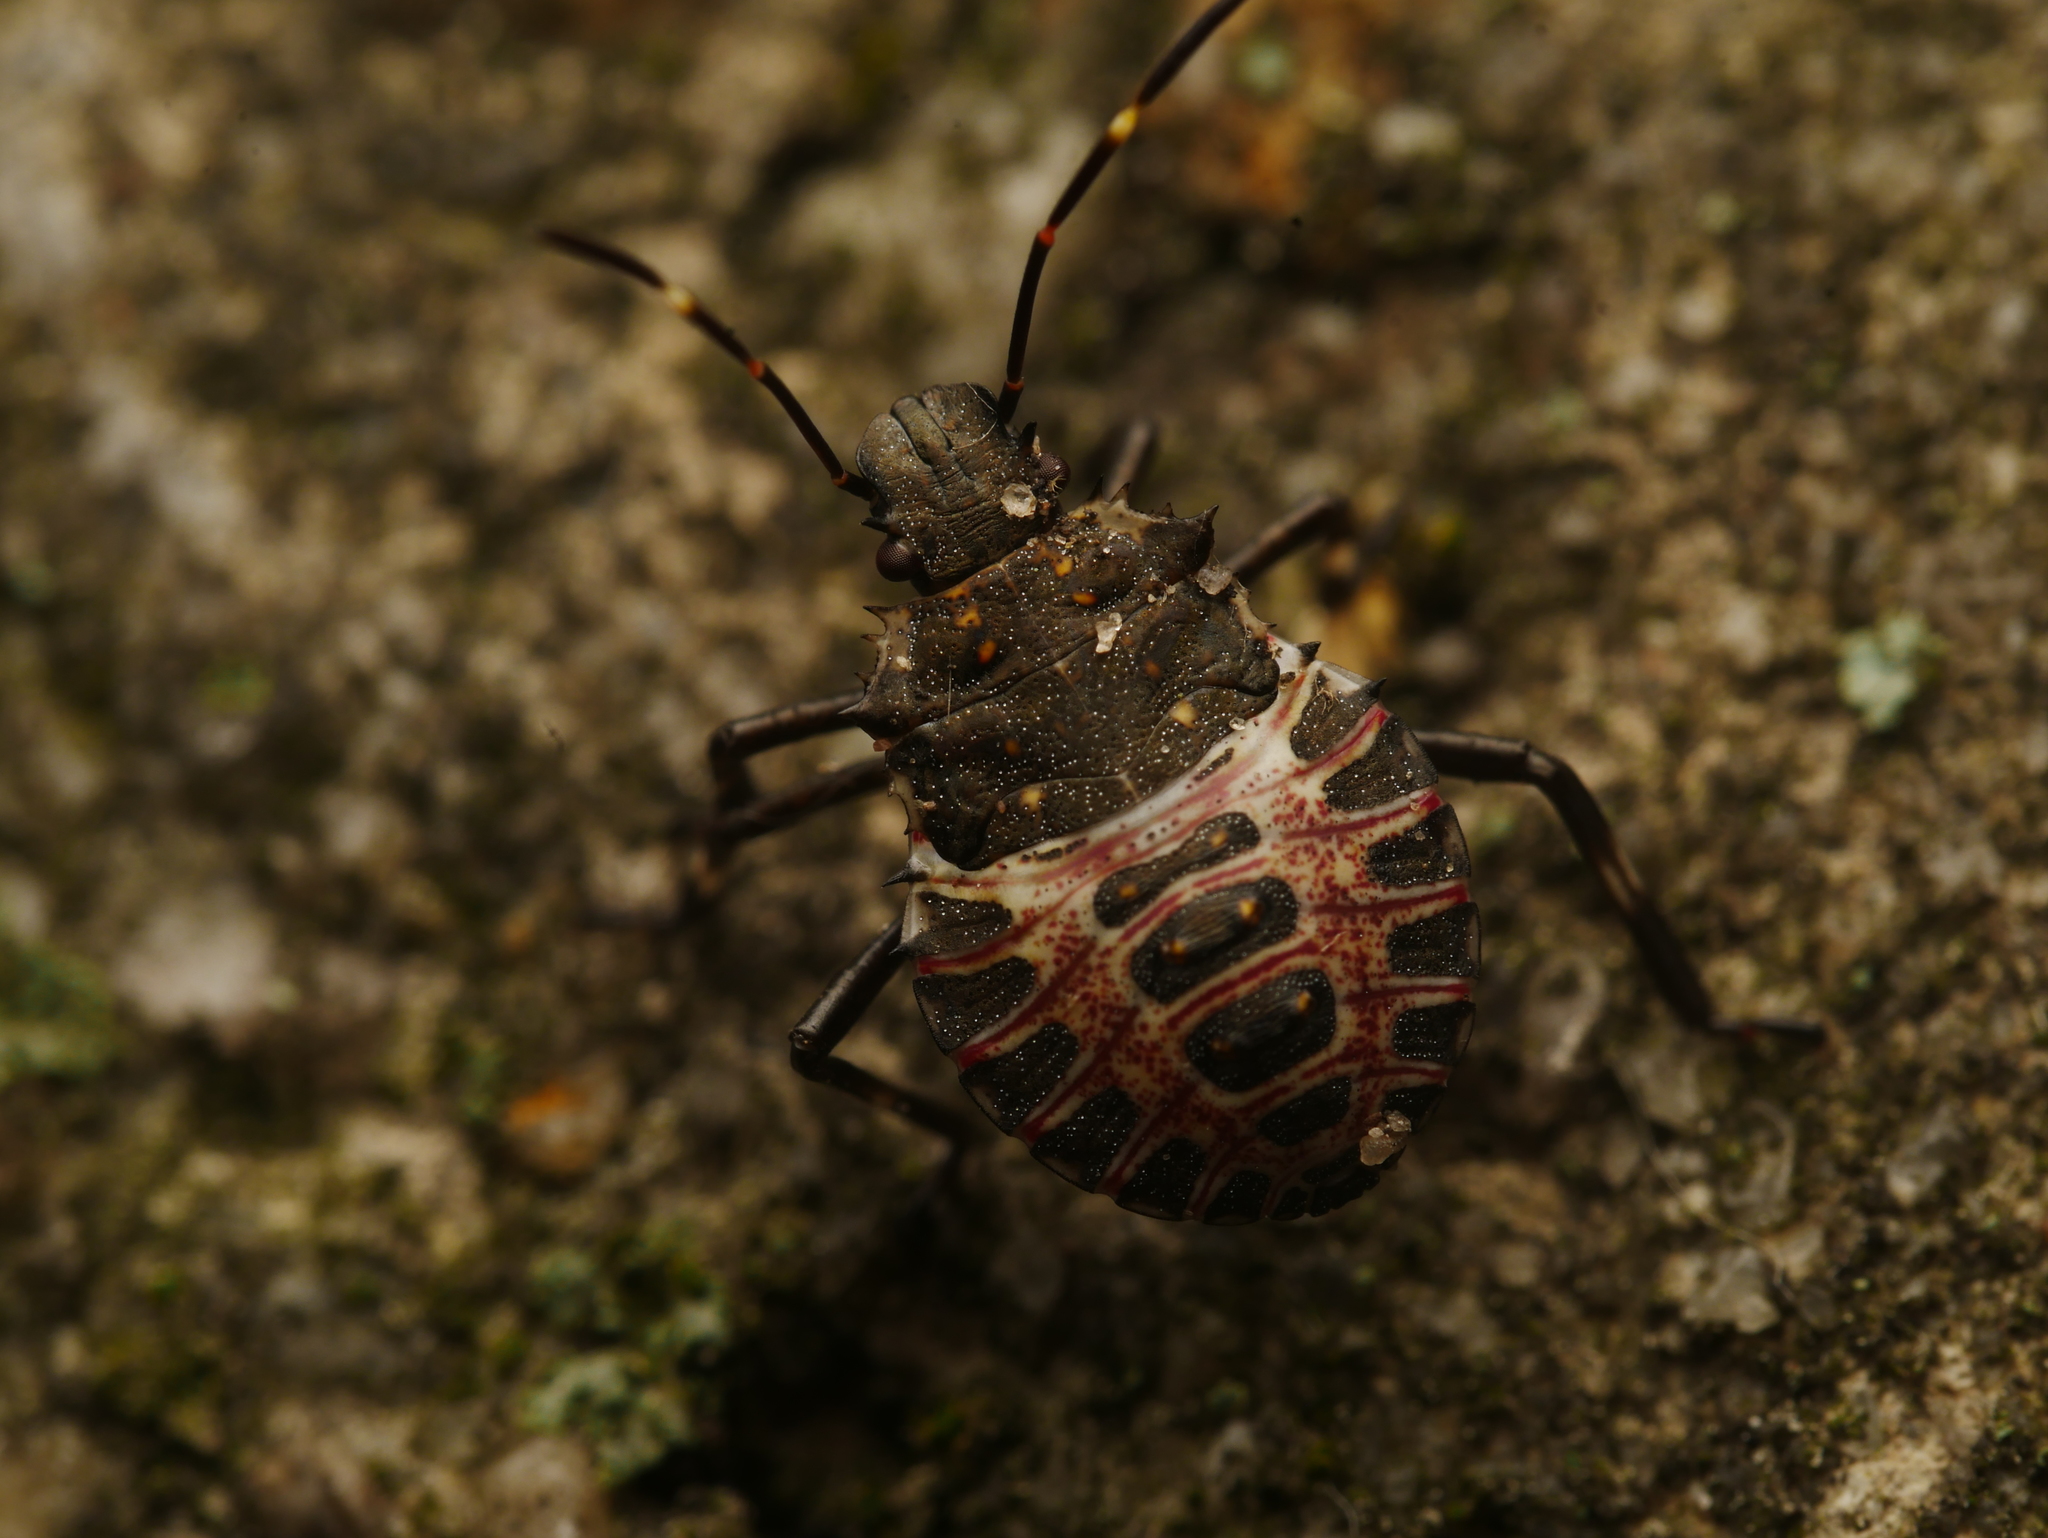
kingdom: Animalia
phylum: Arthropoda
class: Insecta
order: Hemiptera
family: Pentatomidae
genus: Halyomorpha
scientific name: Halyomorpha halys
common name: Brown marmorated stink bug
